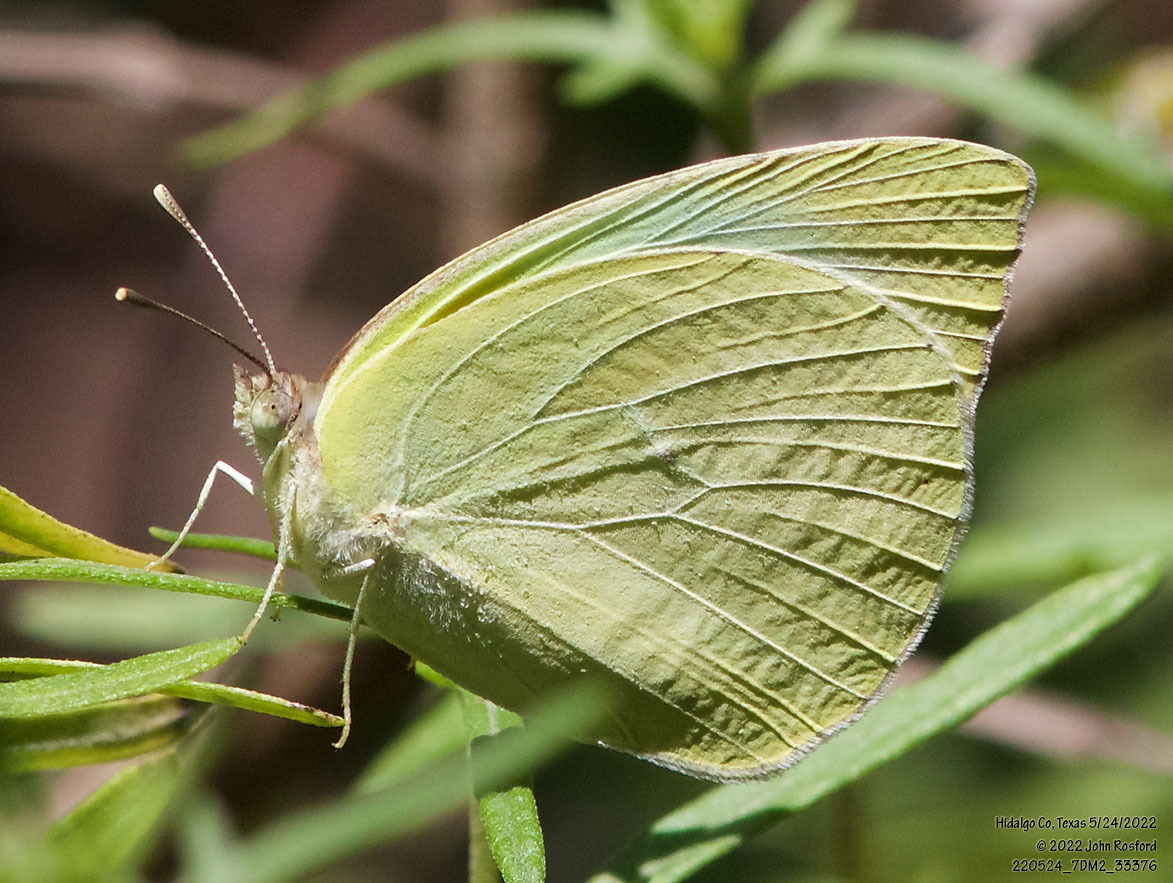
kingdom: Animalia
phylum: Arthropoda
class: Insecta
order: Lepidoptera
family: Pieridae
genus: Kricogonia
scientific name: Kricogonia lyside
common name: Guayacan sulphur,
